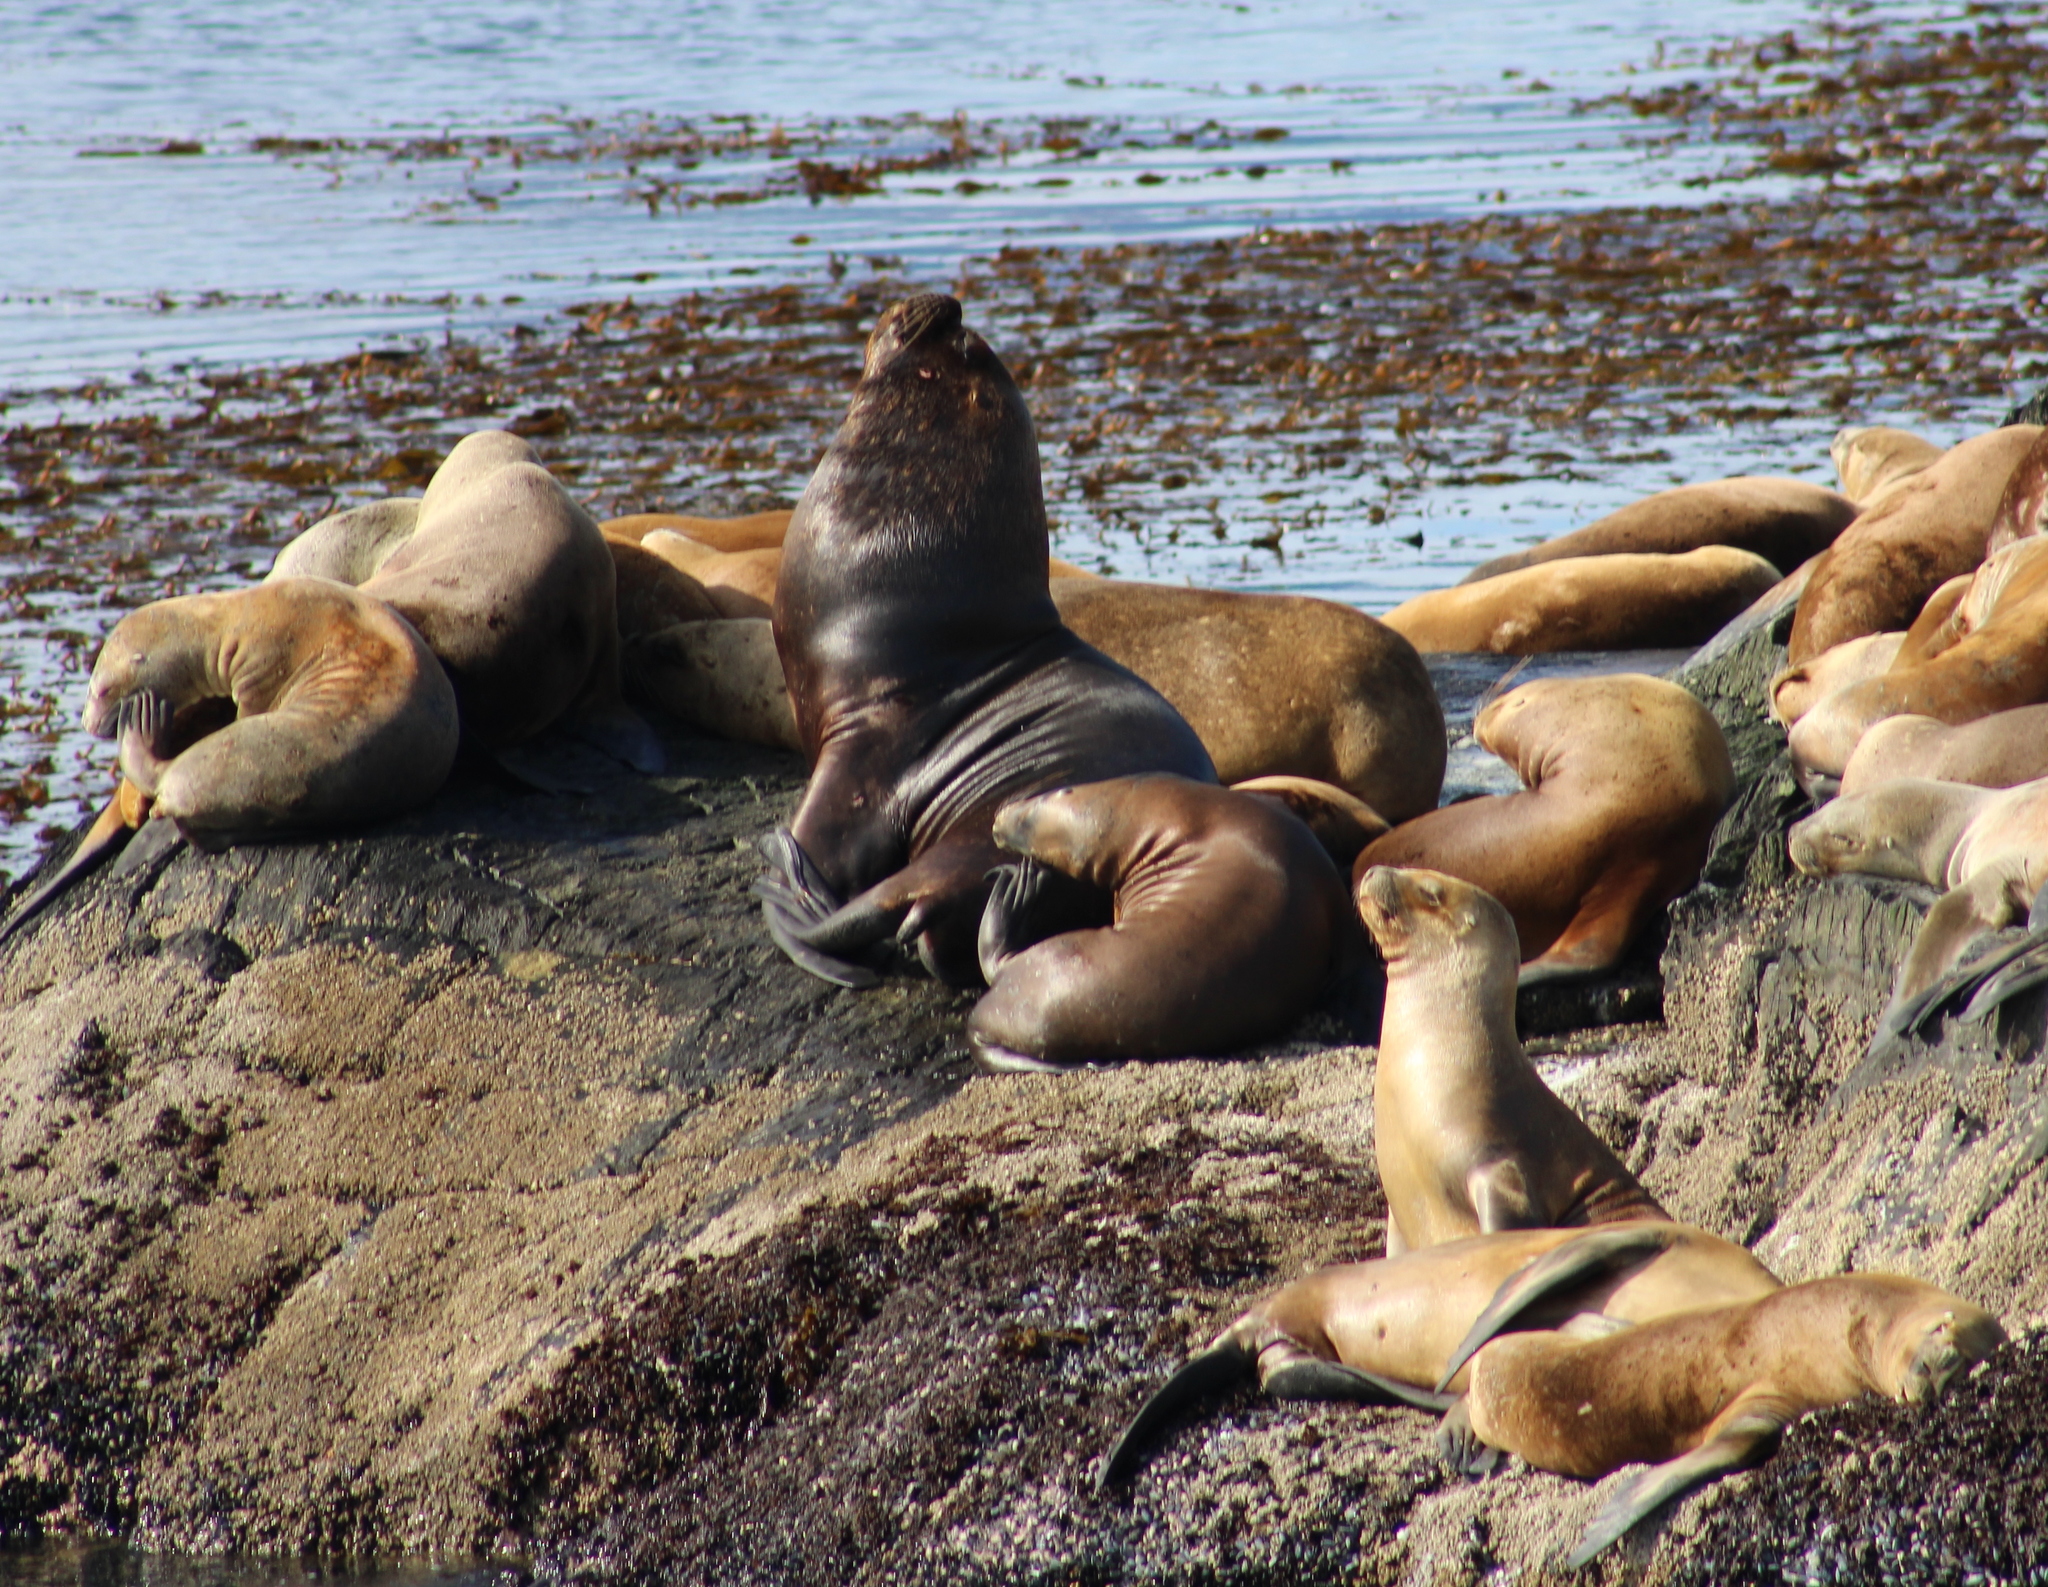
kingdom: Animalia
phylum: Chordata
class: Mammalia
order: Carnivora
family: Otariidae
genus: Otaria
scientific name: Otaria byronia
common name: South american sea lion
